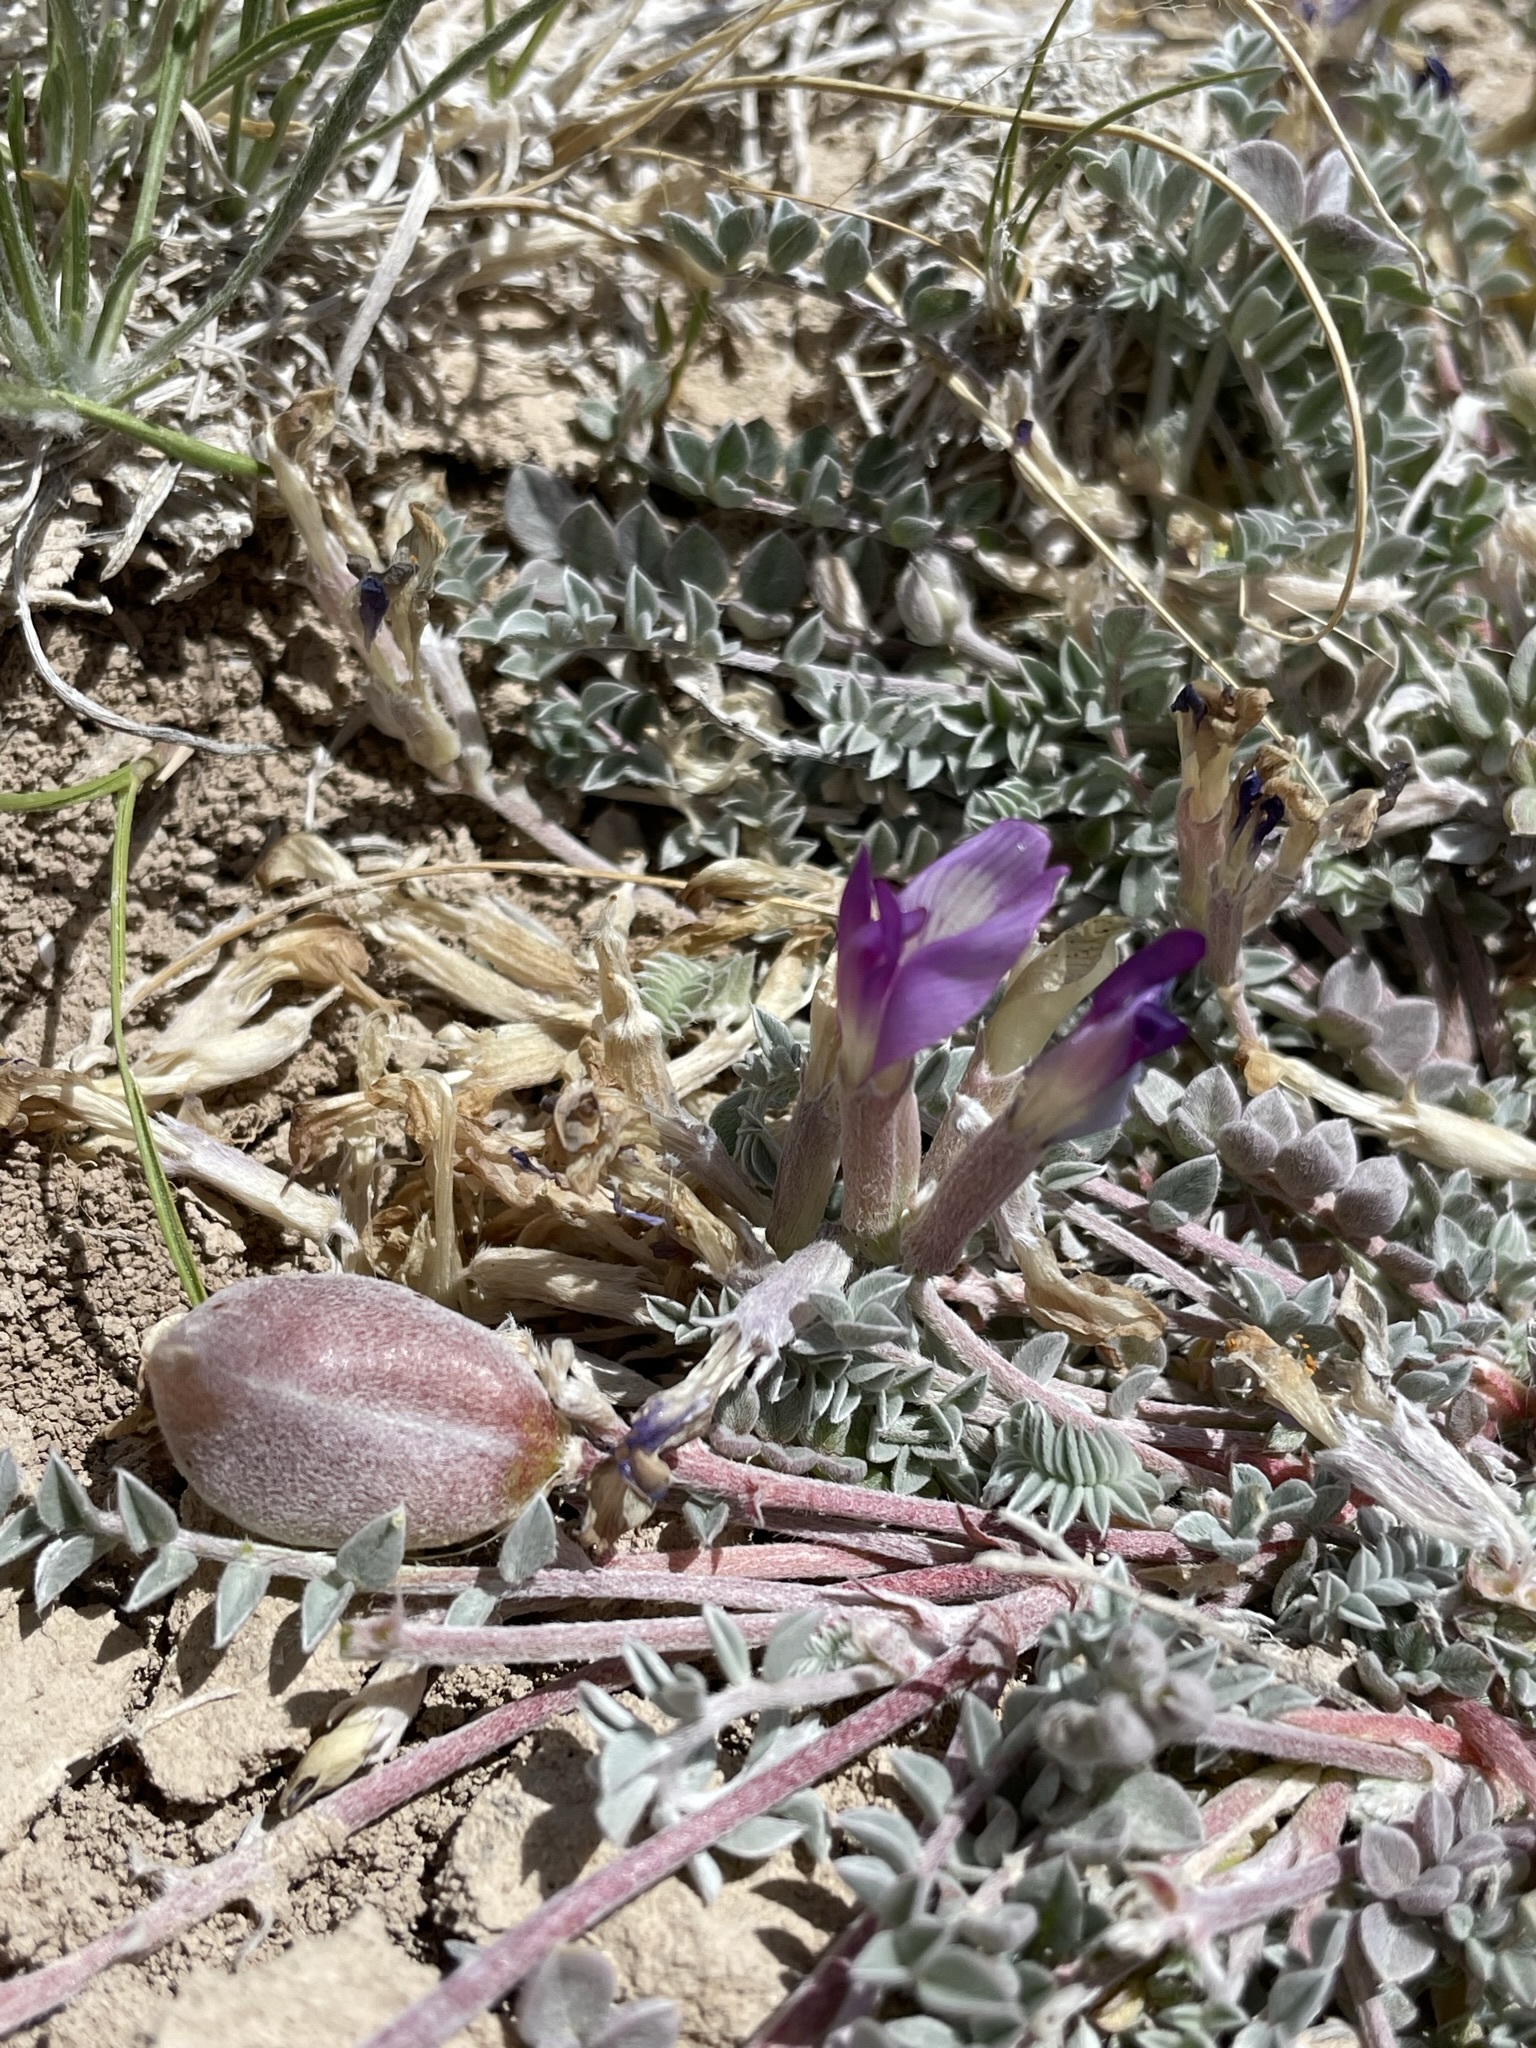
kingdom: Plantae
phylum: Tracheophyta
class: Magnoliopsida
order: Fabales
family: Fabaceae
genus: Astragalus
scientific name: Astragalus argophyllus
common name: Silverleaf milk-vetch
